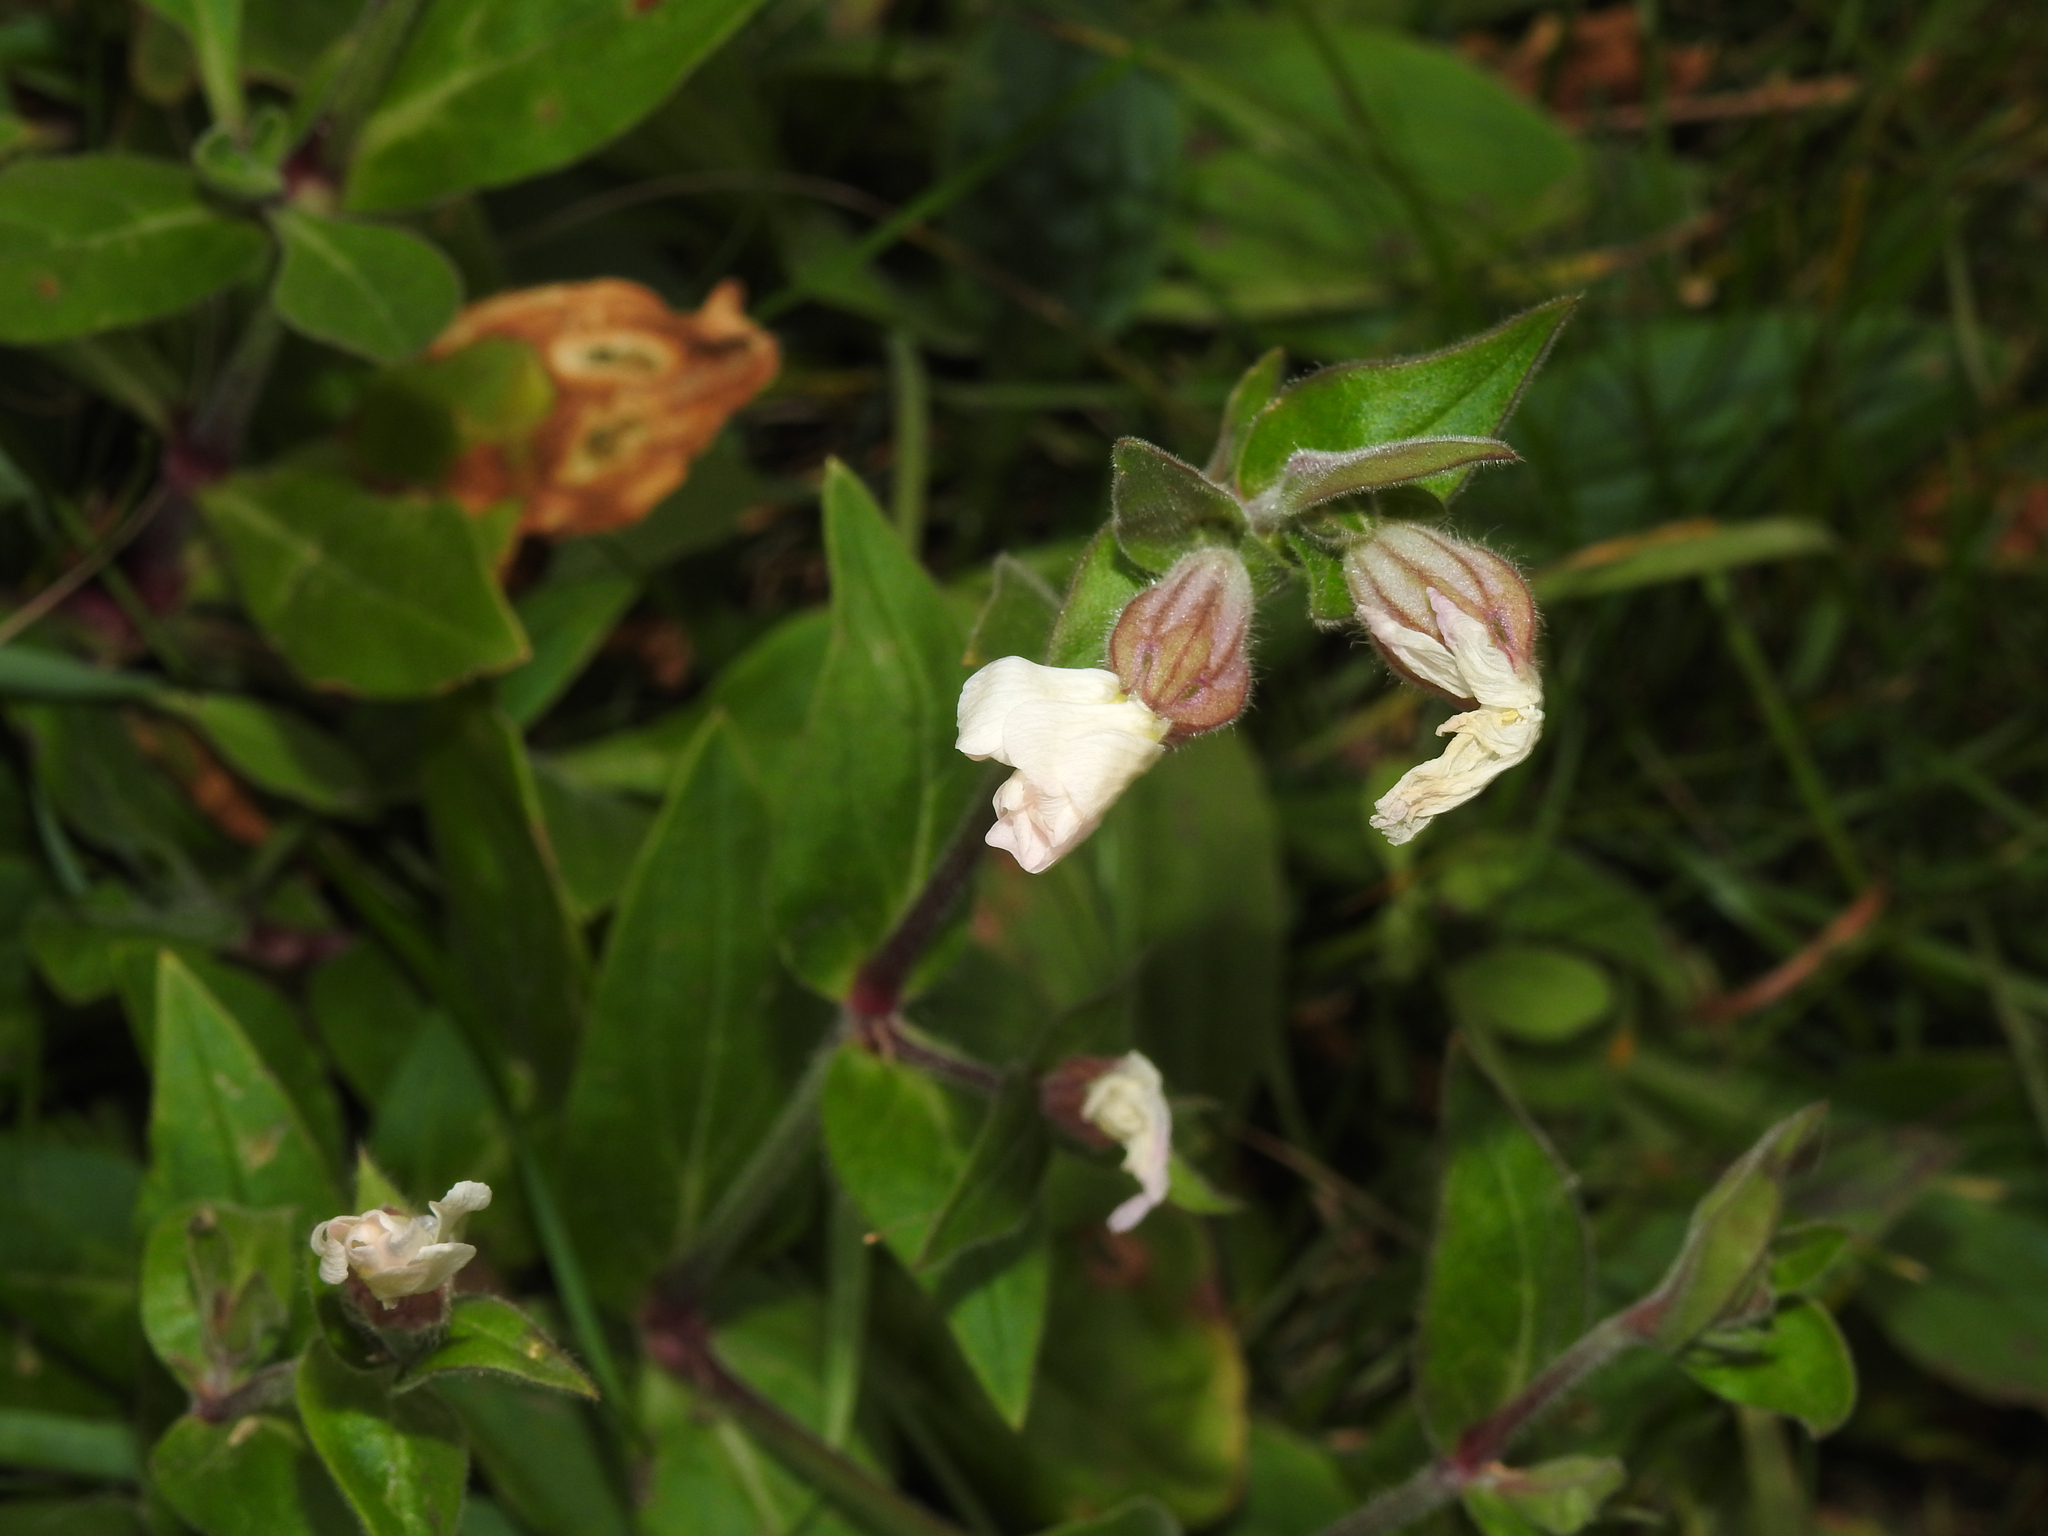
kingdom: Plantae
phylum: Tracheophyta
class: Magnoliopsida
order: Caryophyllales
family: Caryophyllaceae
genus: Silene
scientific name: Silene latifolia
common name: White campion
